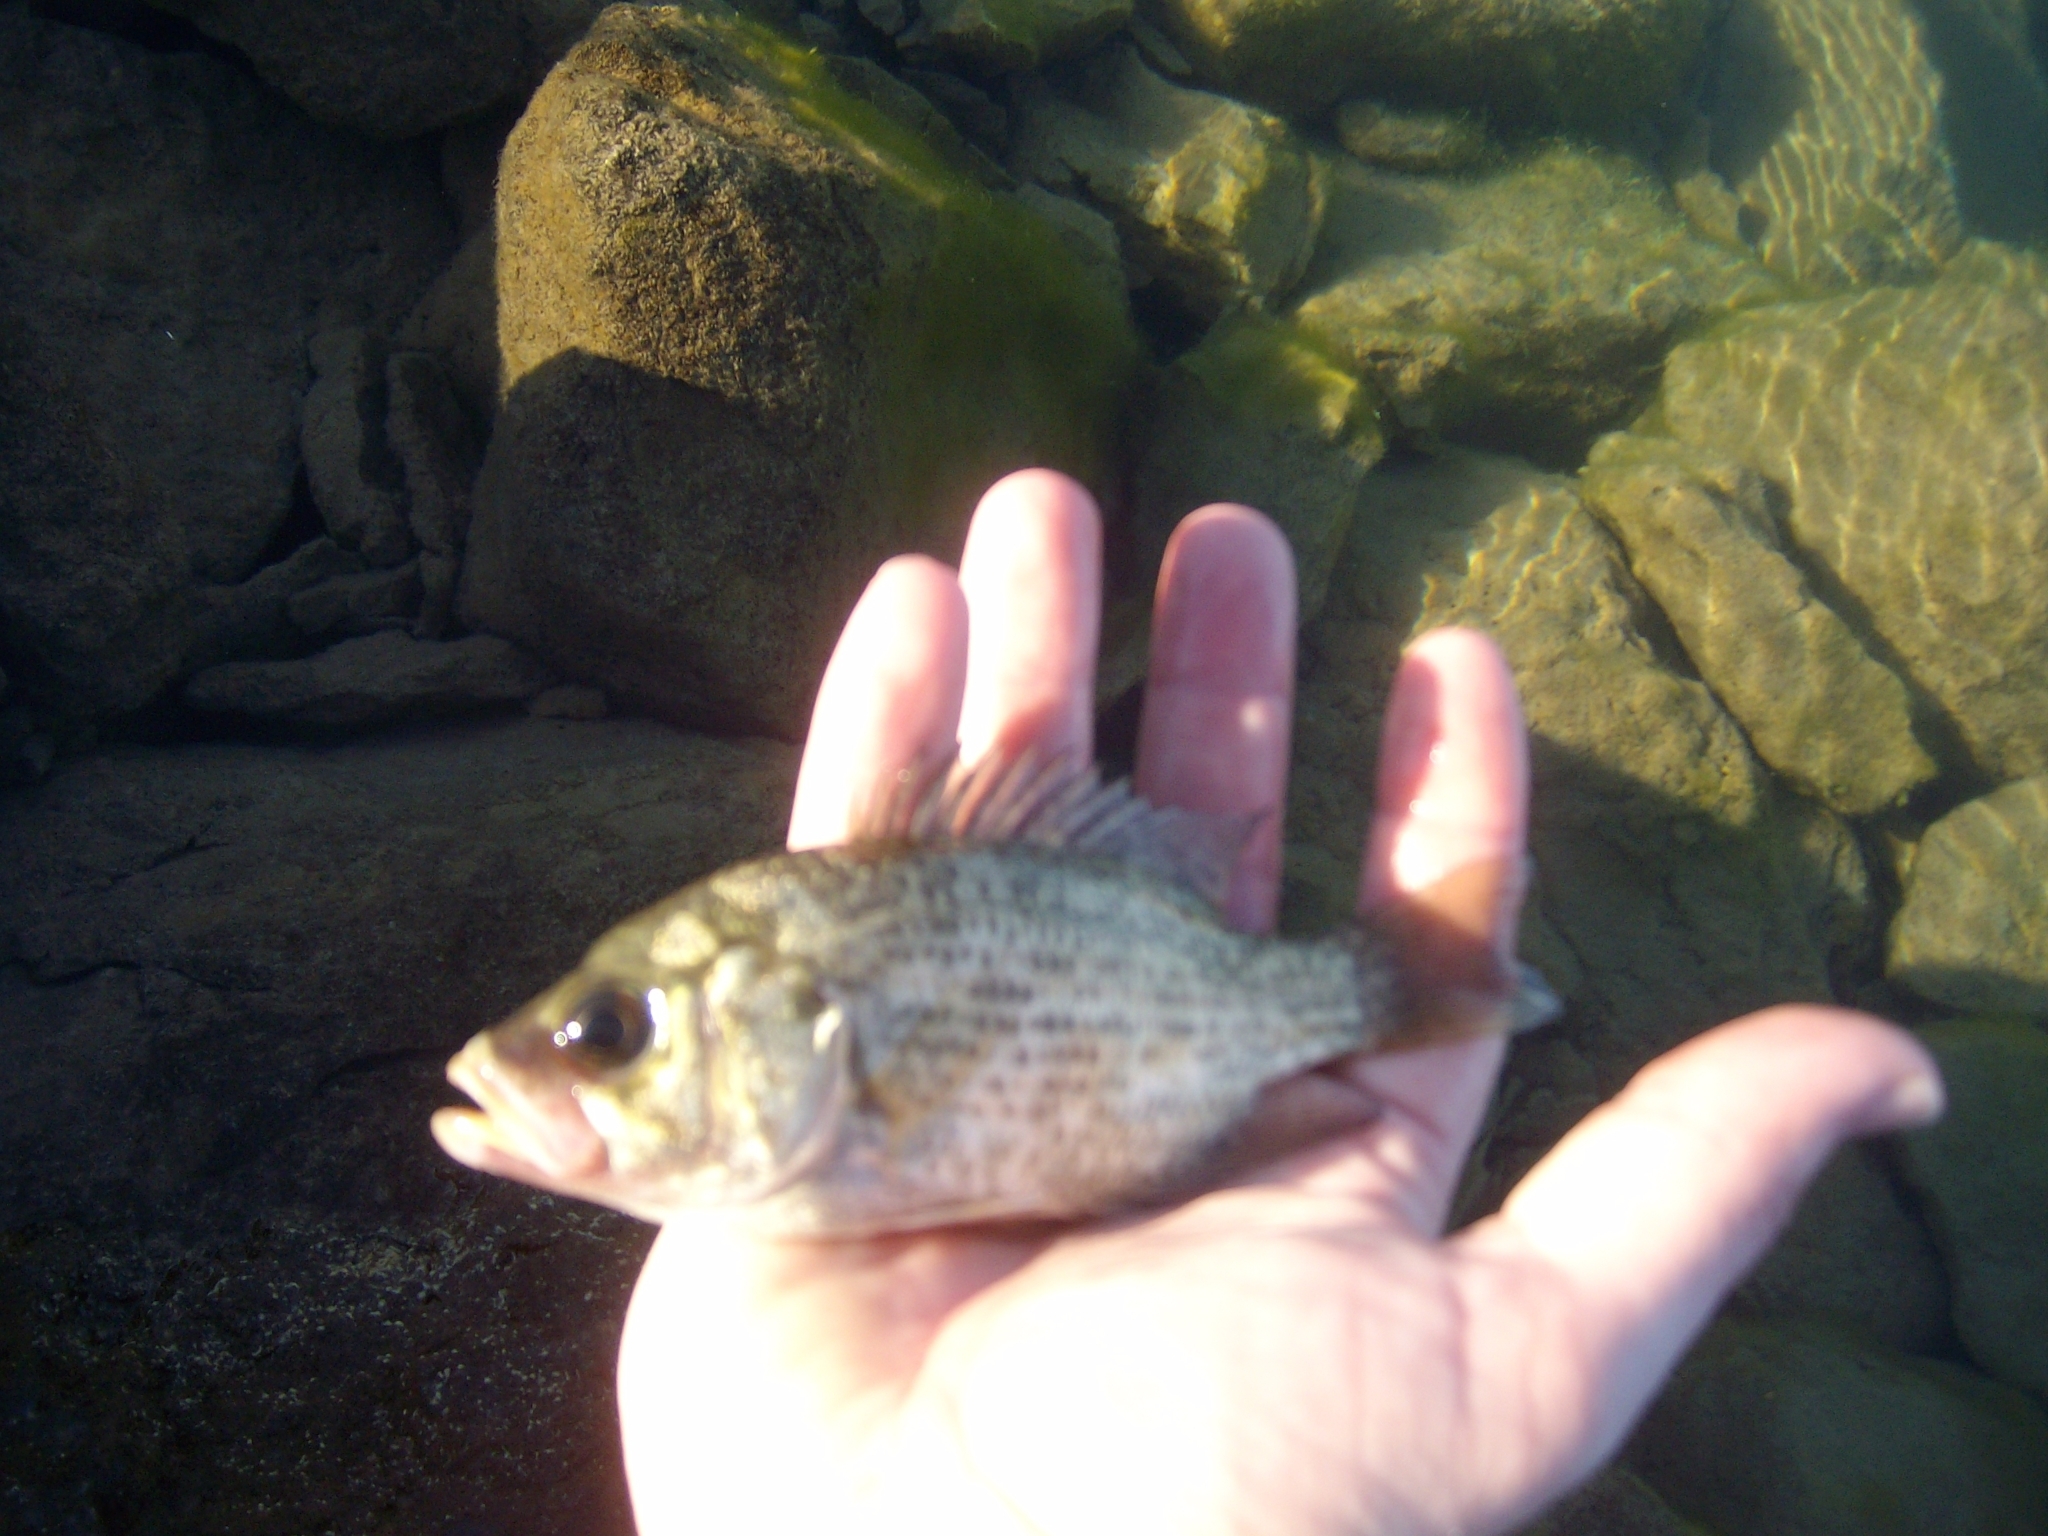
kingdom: Animalia
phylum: Chordata
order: Perciformes
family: Centrarchidae
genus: Ambloplites
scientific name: Ambloplites rupestris
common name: Rock bass
